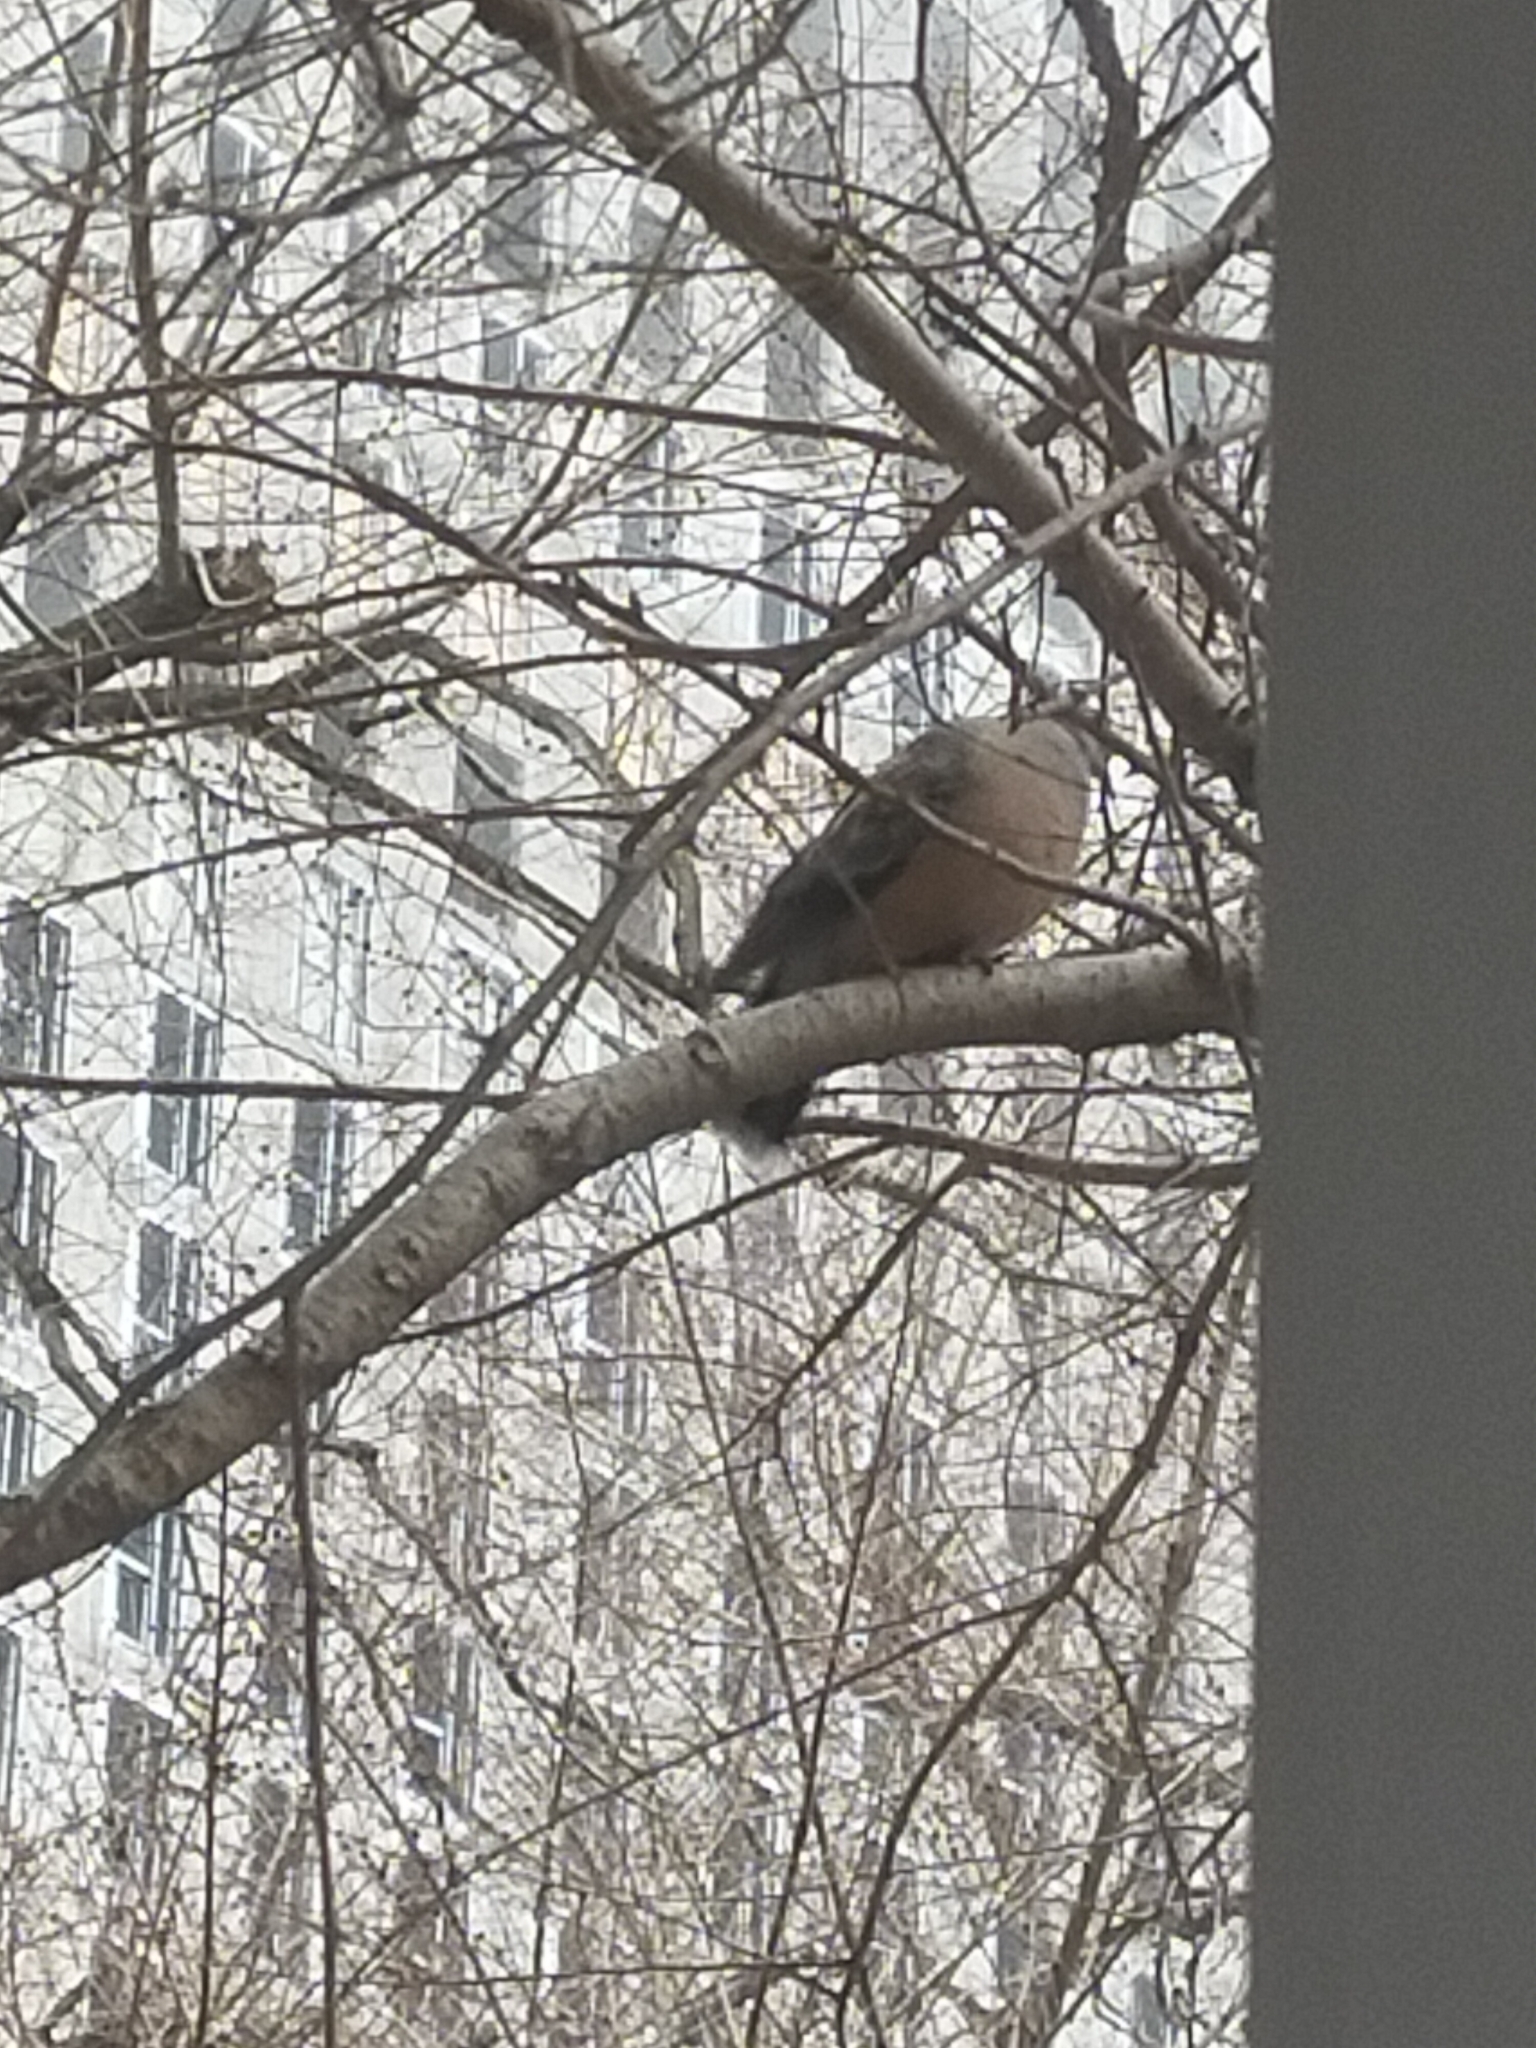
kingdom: Animalia
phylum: Chordata
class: Aves
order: Columbiformes
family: Columbidae
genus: Streptopelia
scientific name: Streptopelia orientalis
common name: Oriental turtle dove
